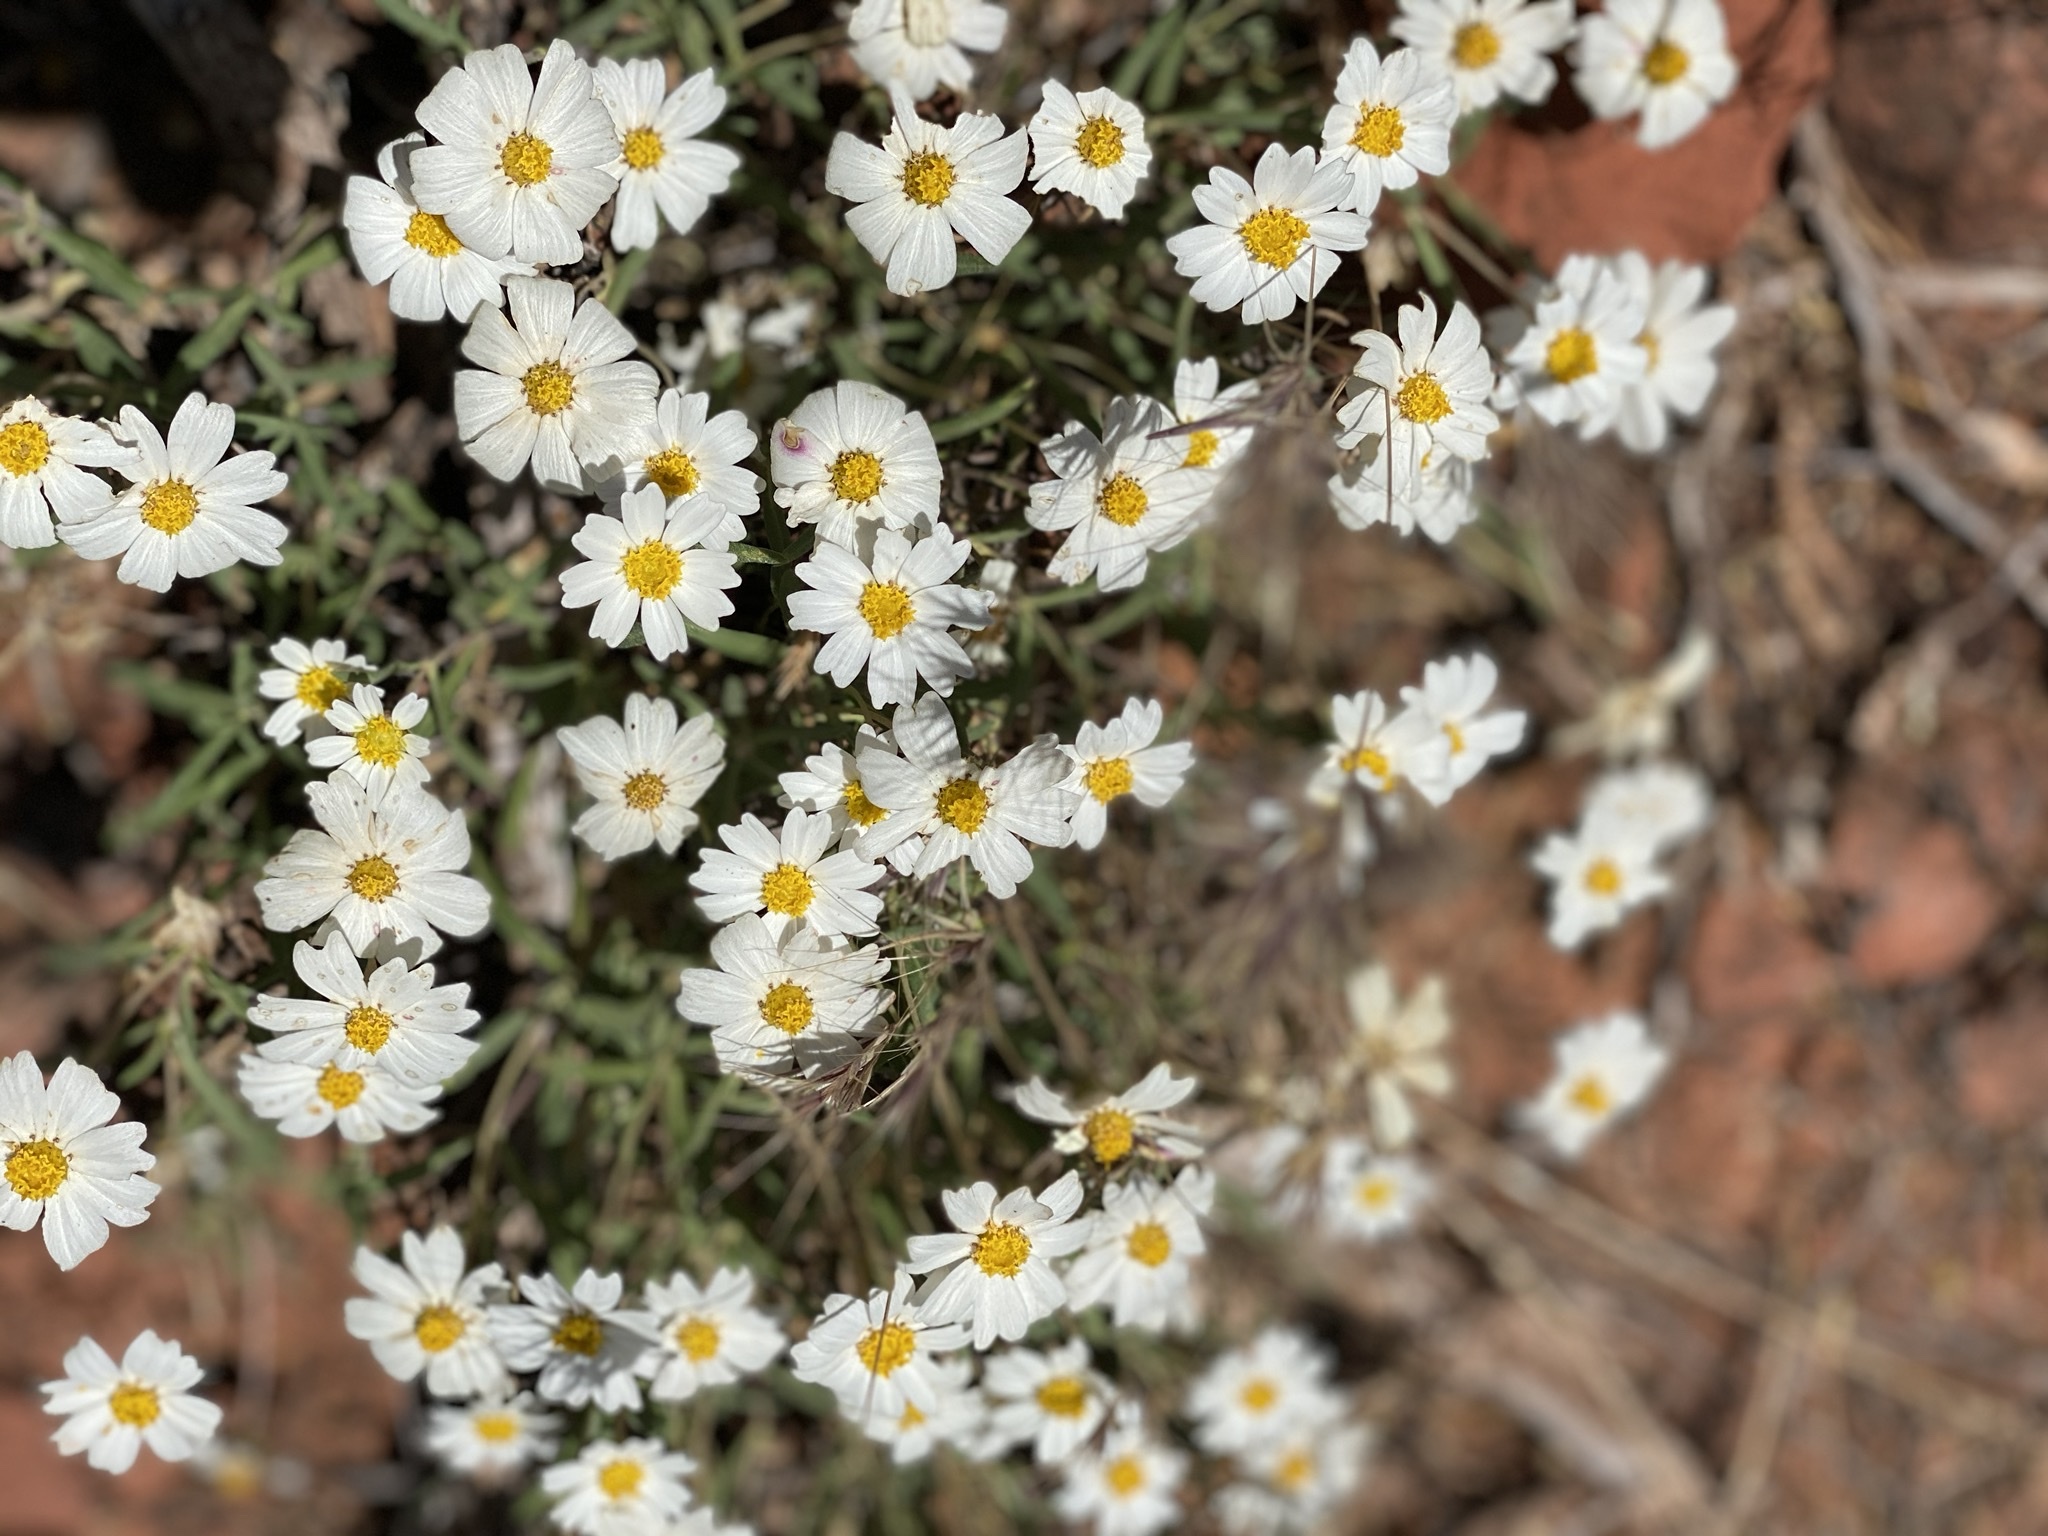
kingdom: Plantae
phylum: Tracheophyta
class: Magnoliopsida
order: Asterales
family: Asteraceae
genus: Melampodium
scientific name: Melampodium leucanthum
